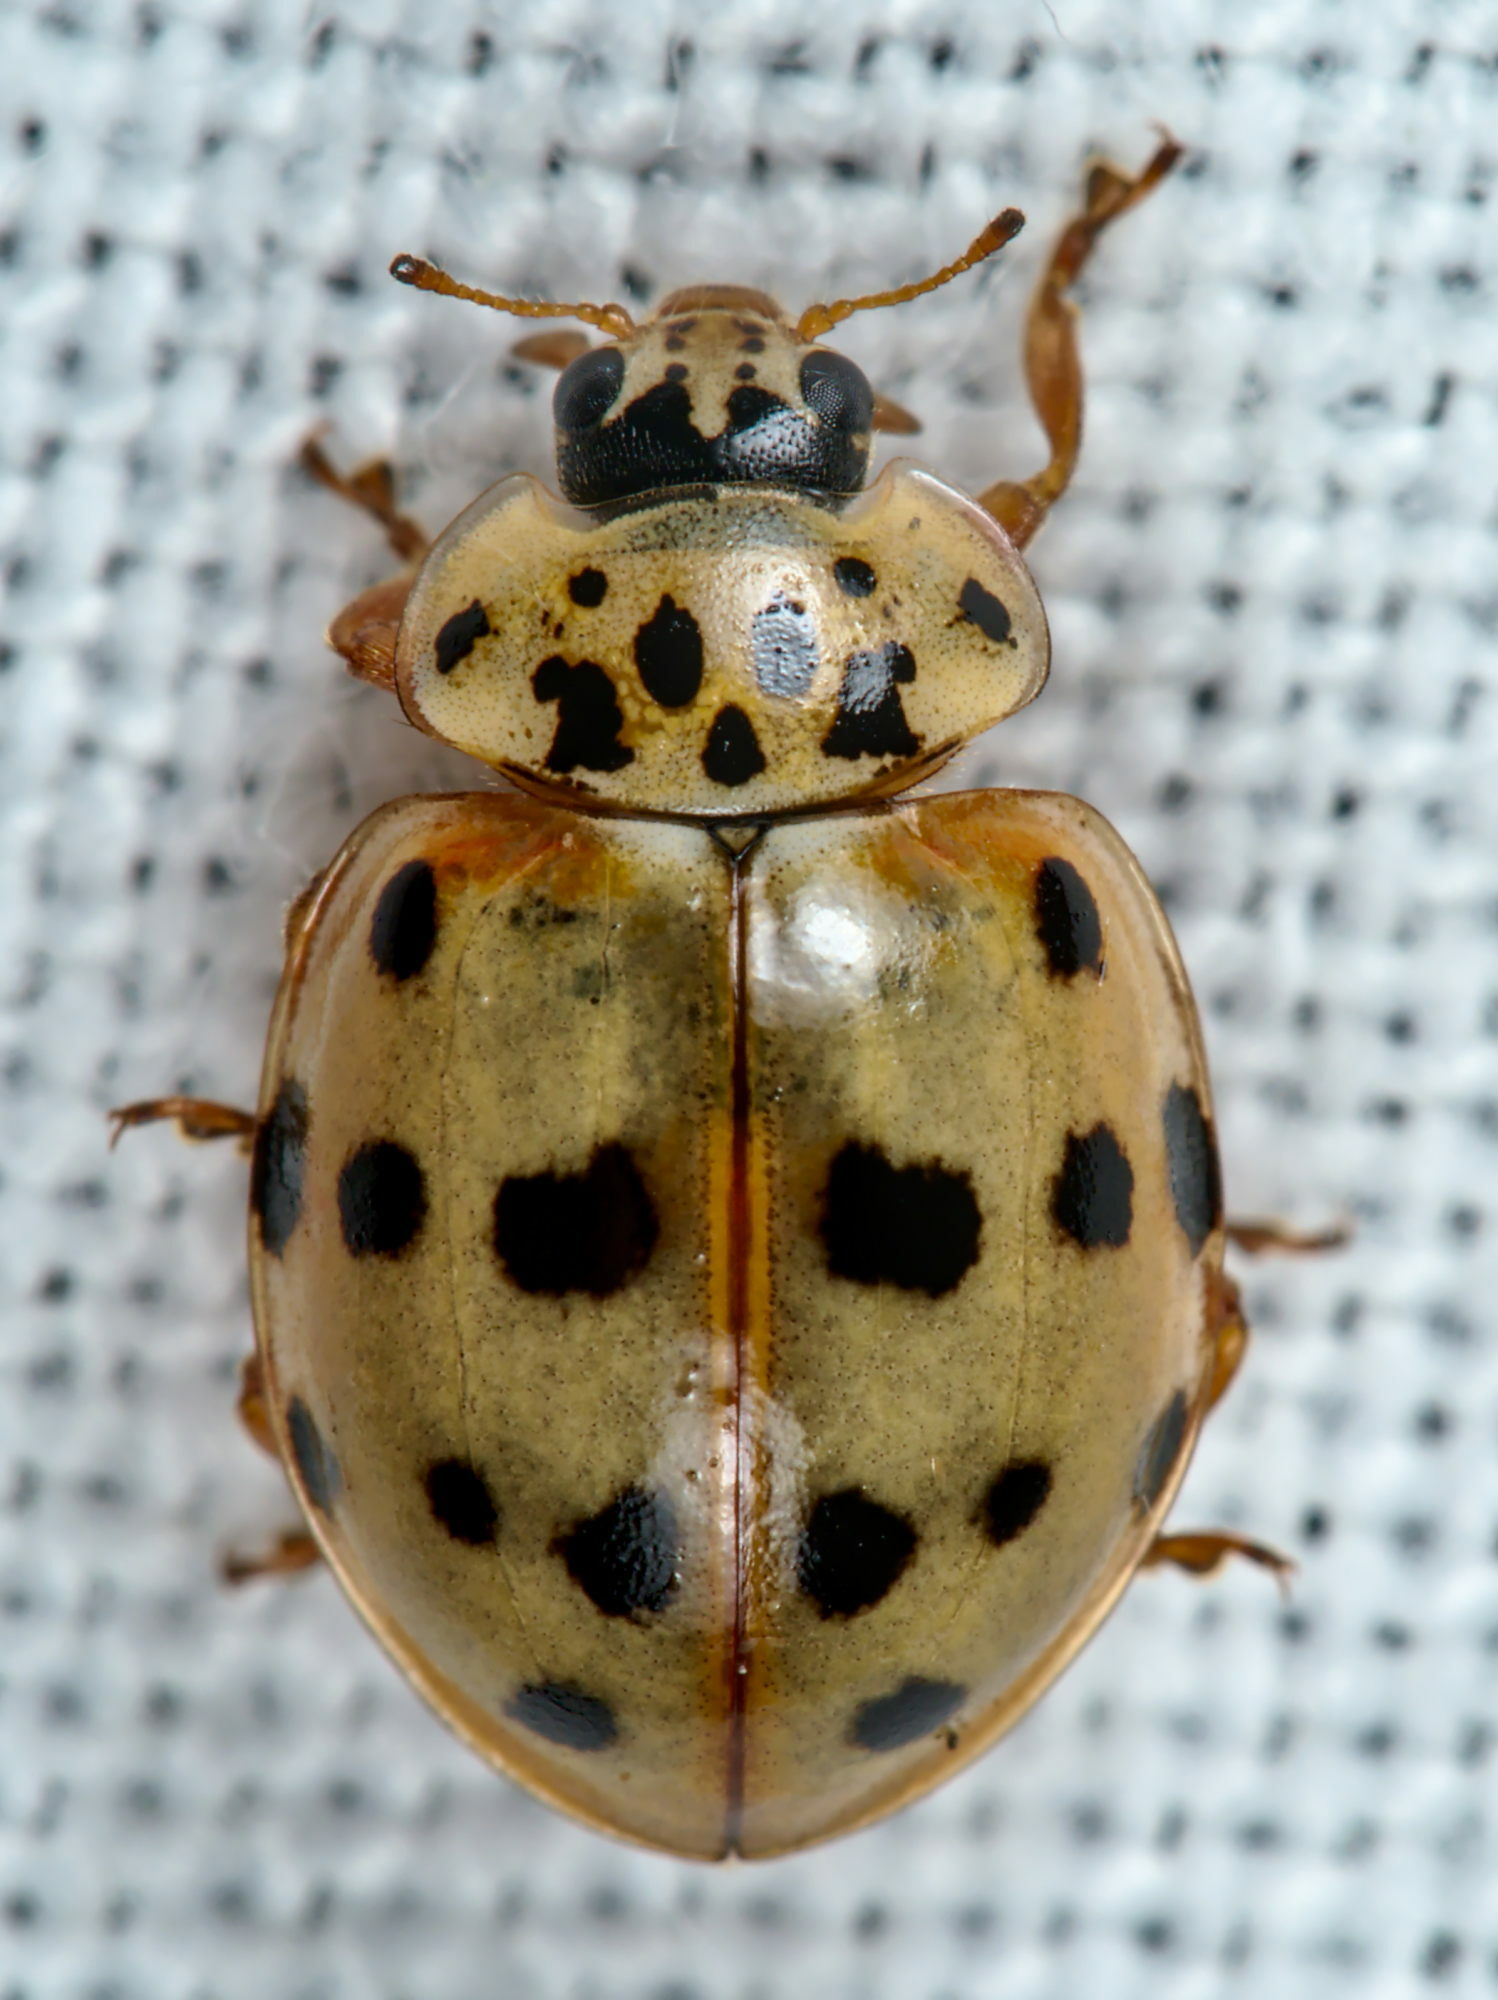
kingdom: Animalia
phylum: Arthropoda
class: Insecta
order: Coleoptera
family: Coccinellidae
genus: Harmonia
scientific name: Harmonia quadripunctata
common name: Cream-streaked ladybird
